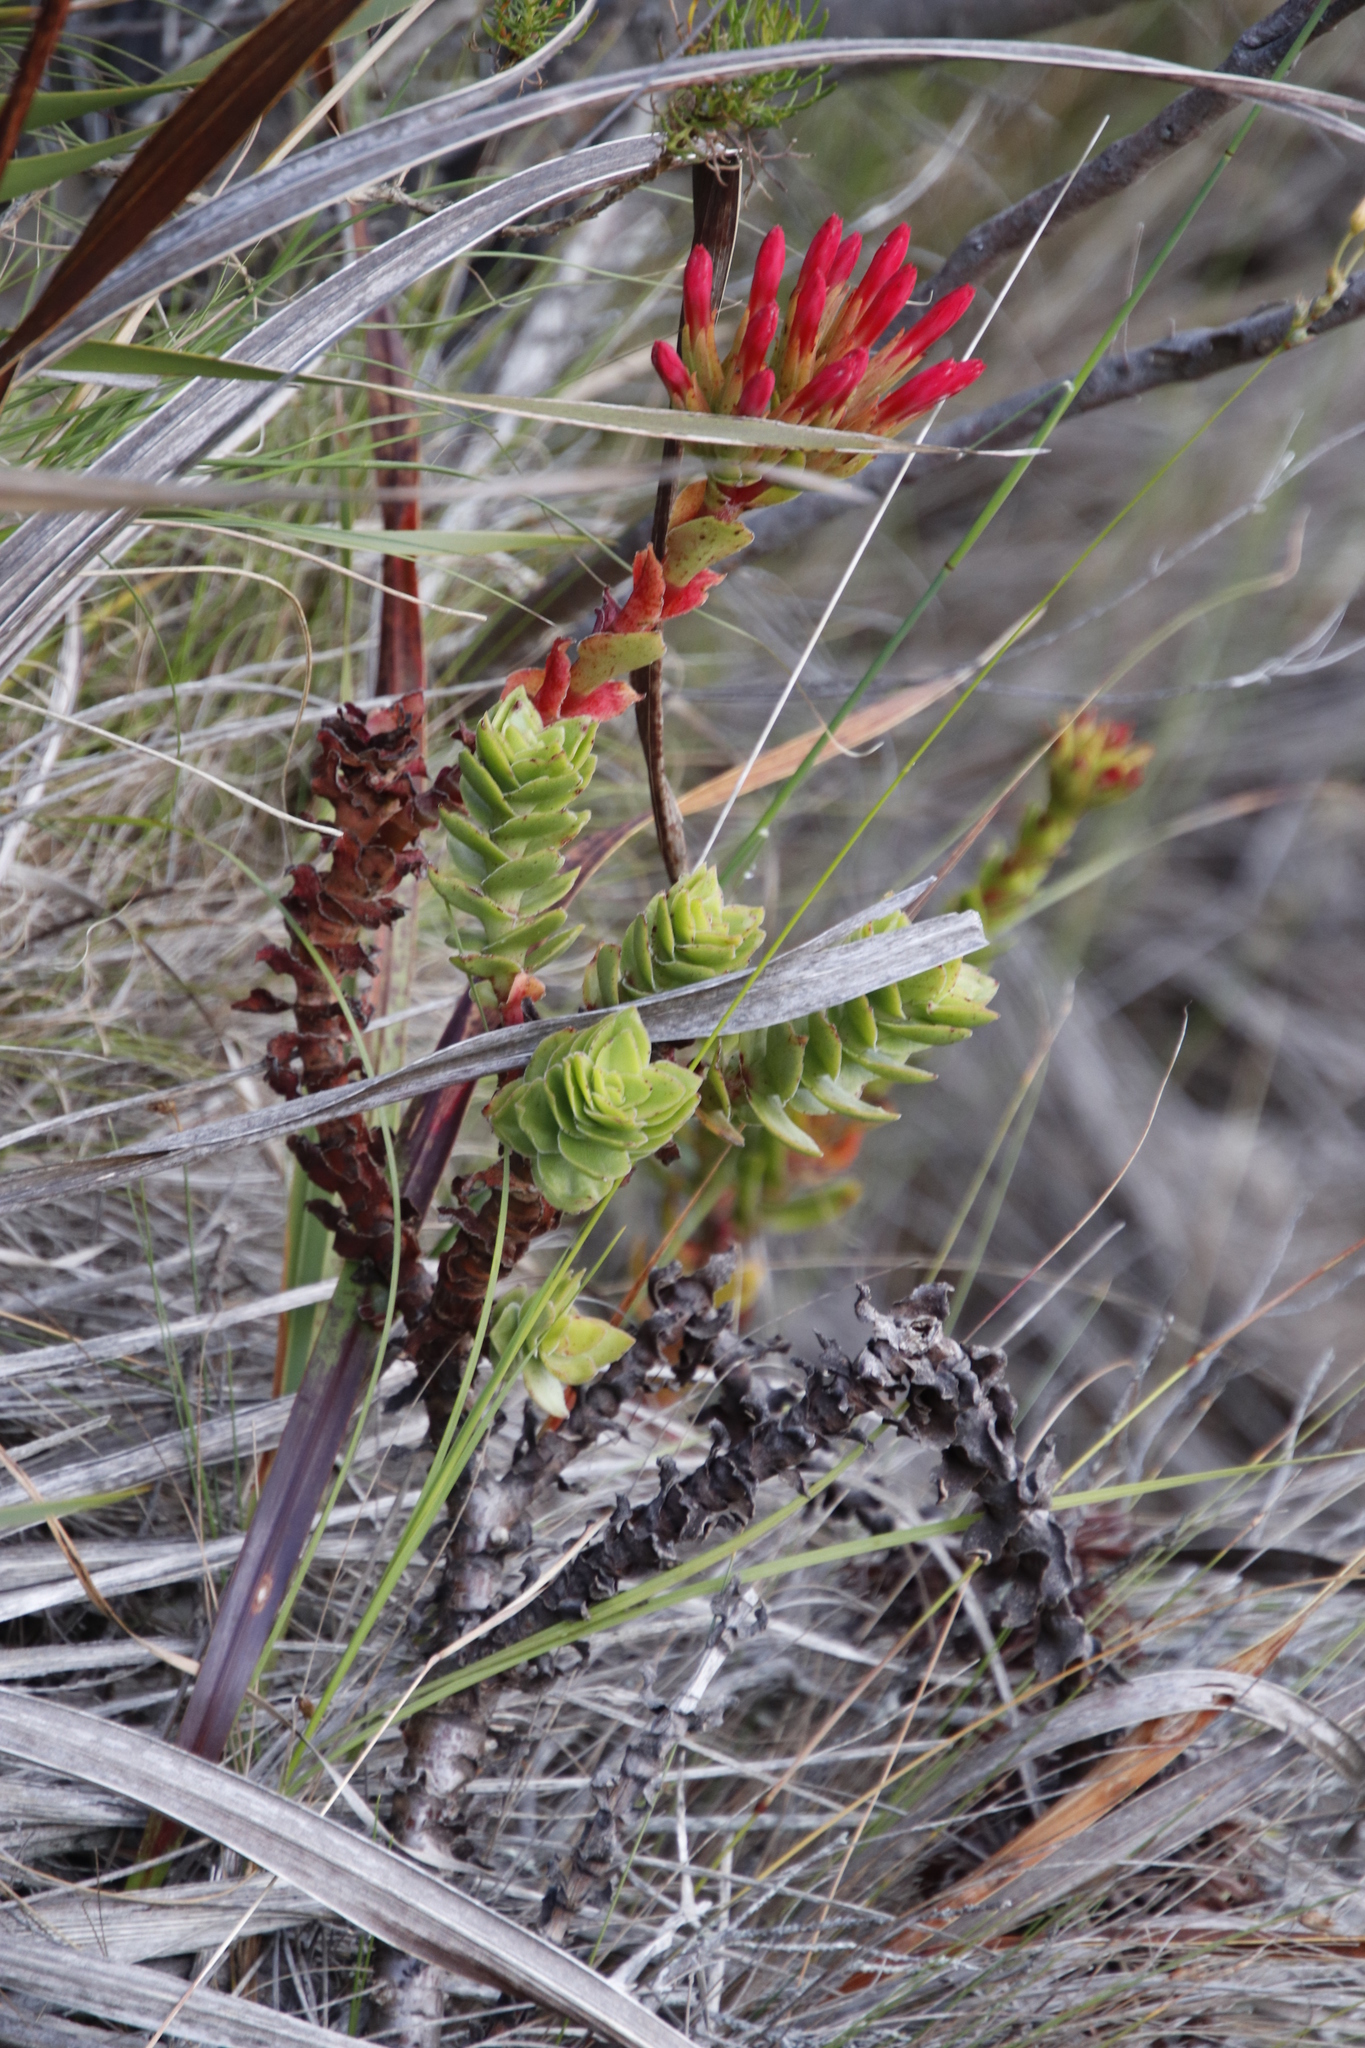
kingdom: Plantae
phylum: Tracheophyta
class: Magnoliopsida
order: Saxifragales
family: Crassulaceae
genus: Crassula
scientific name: Crassula coccinea
